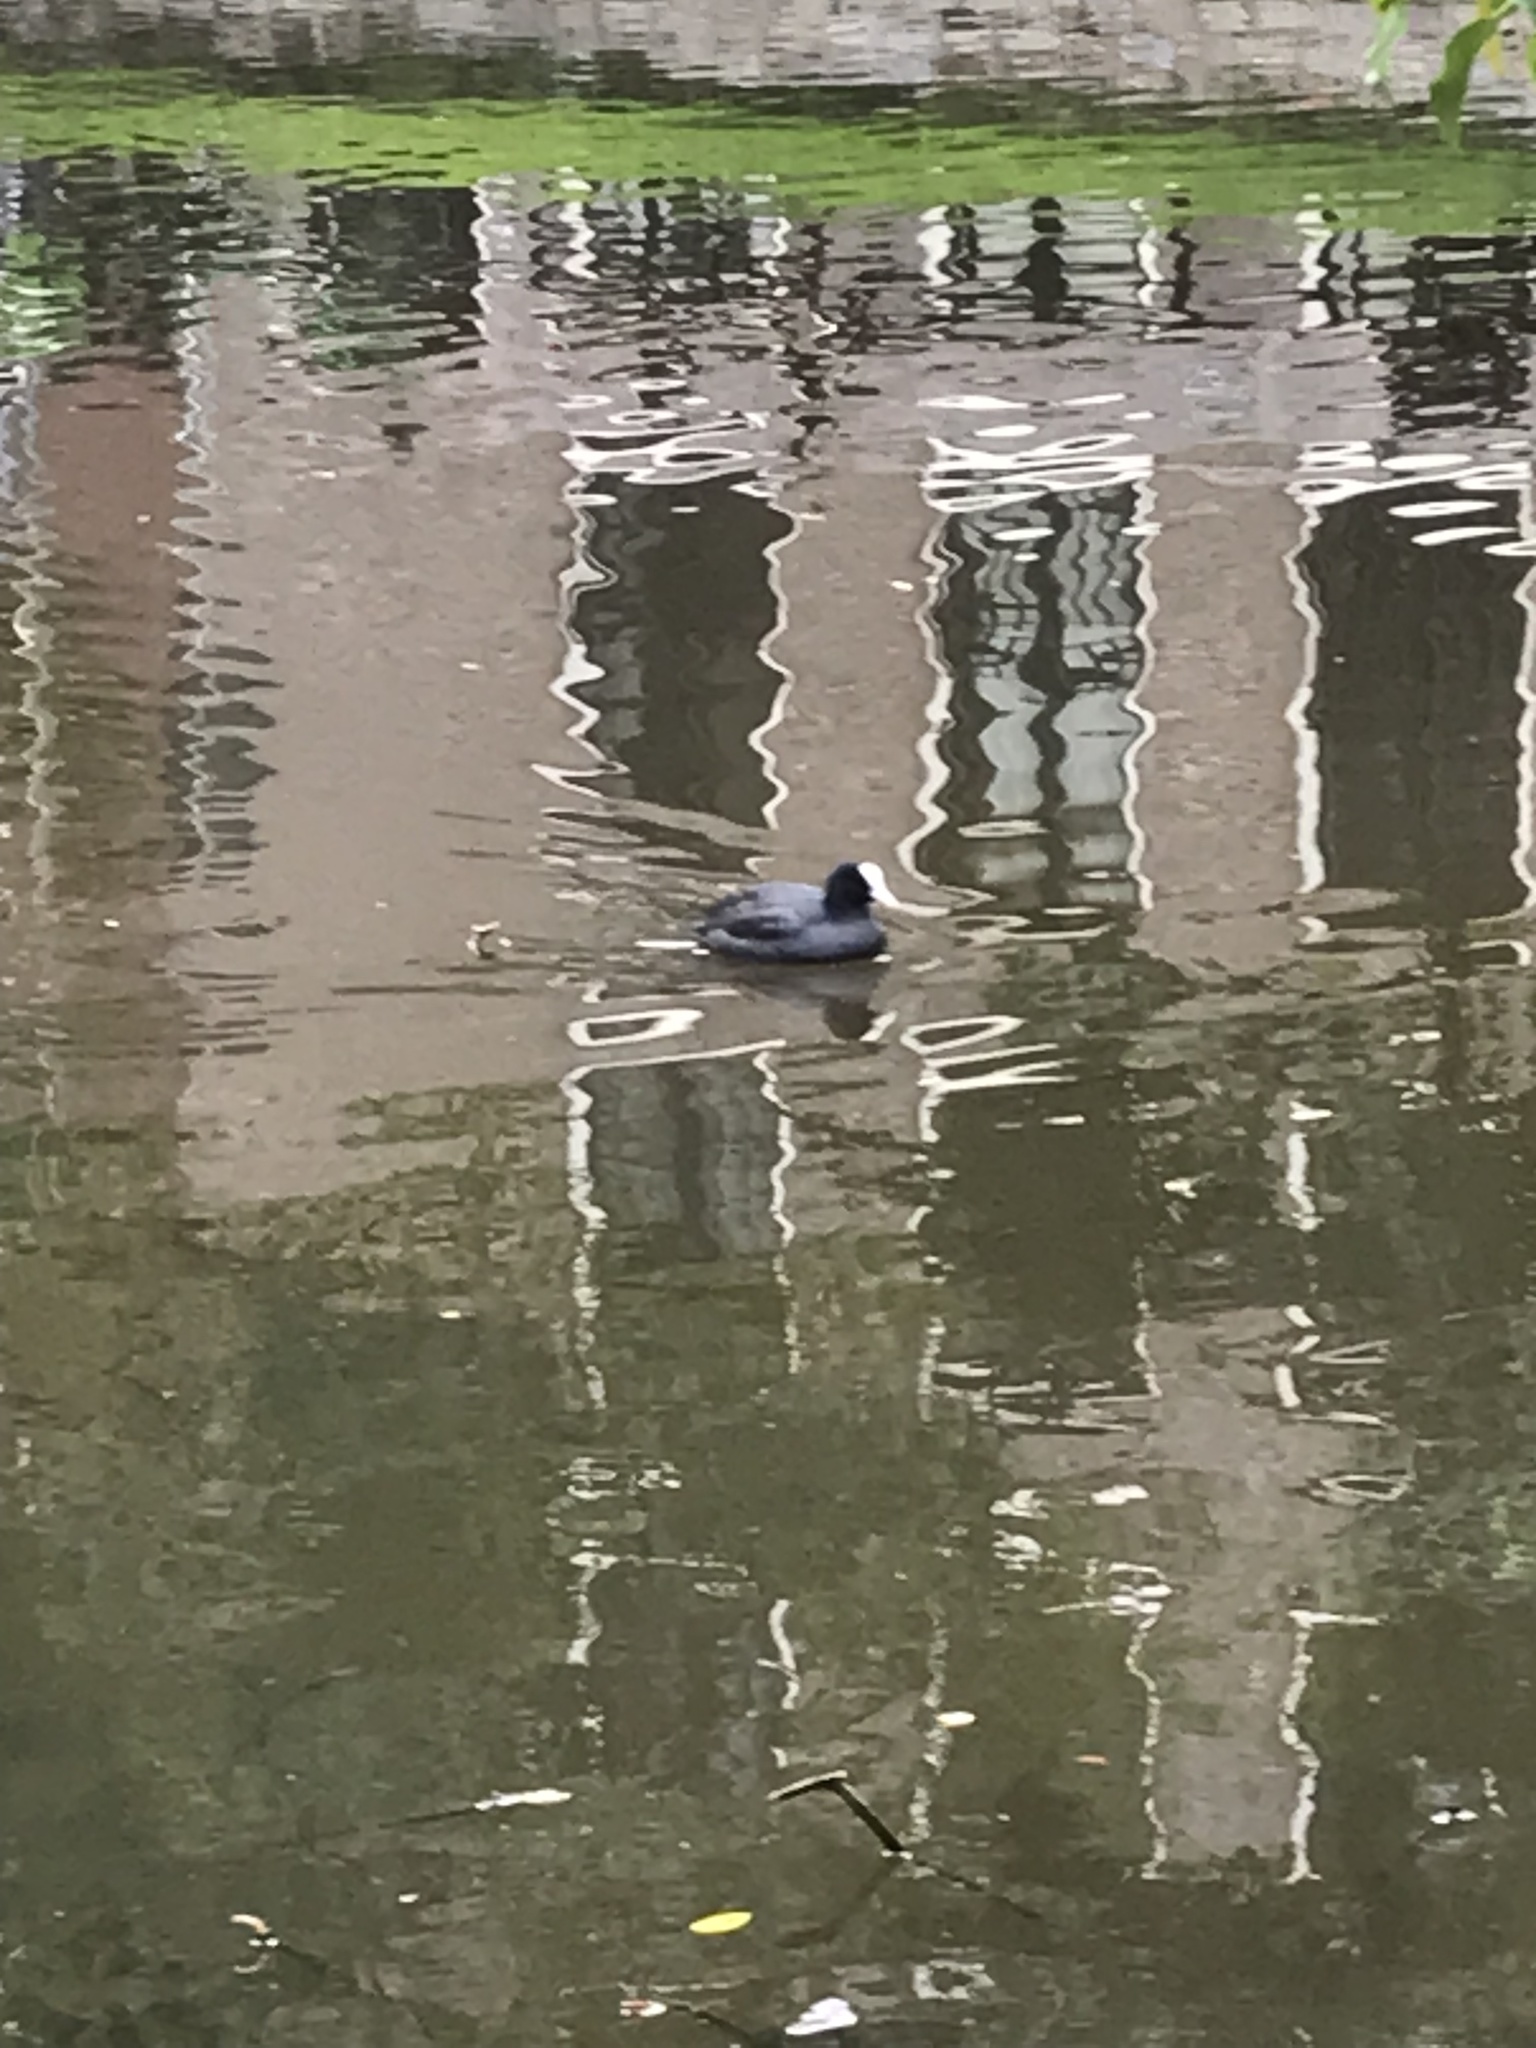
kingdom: Animalia
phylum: Chordata
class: Aves
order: Gruiformes
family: Rallidae
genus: Fulica
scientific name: Fulica atra
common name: Eurasian coot
